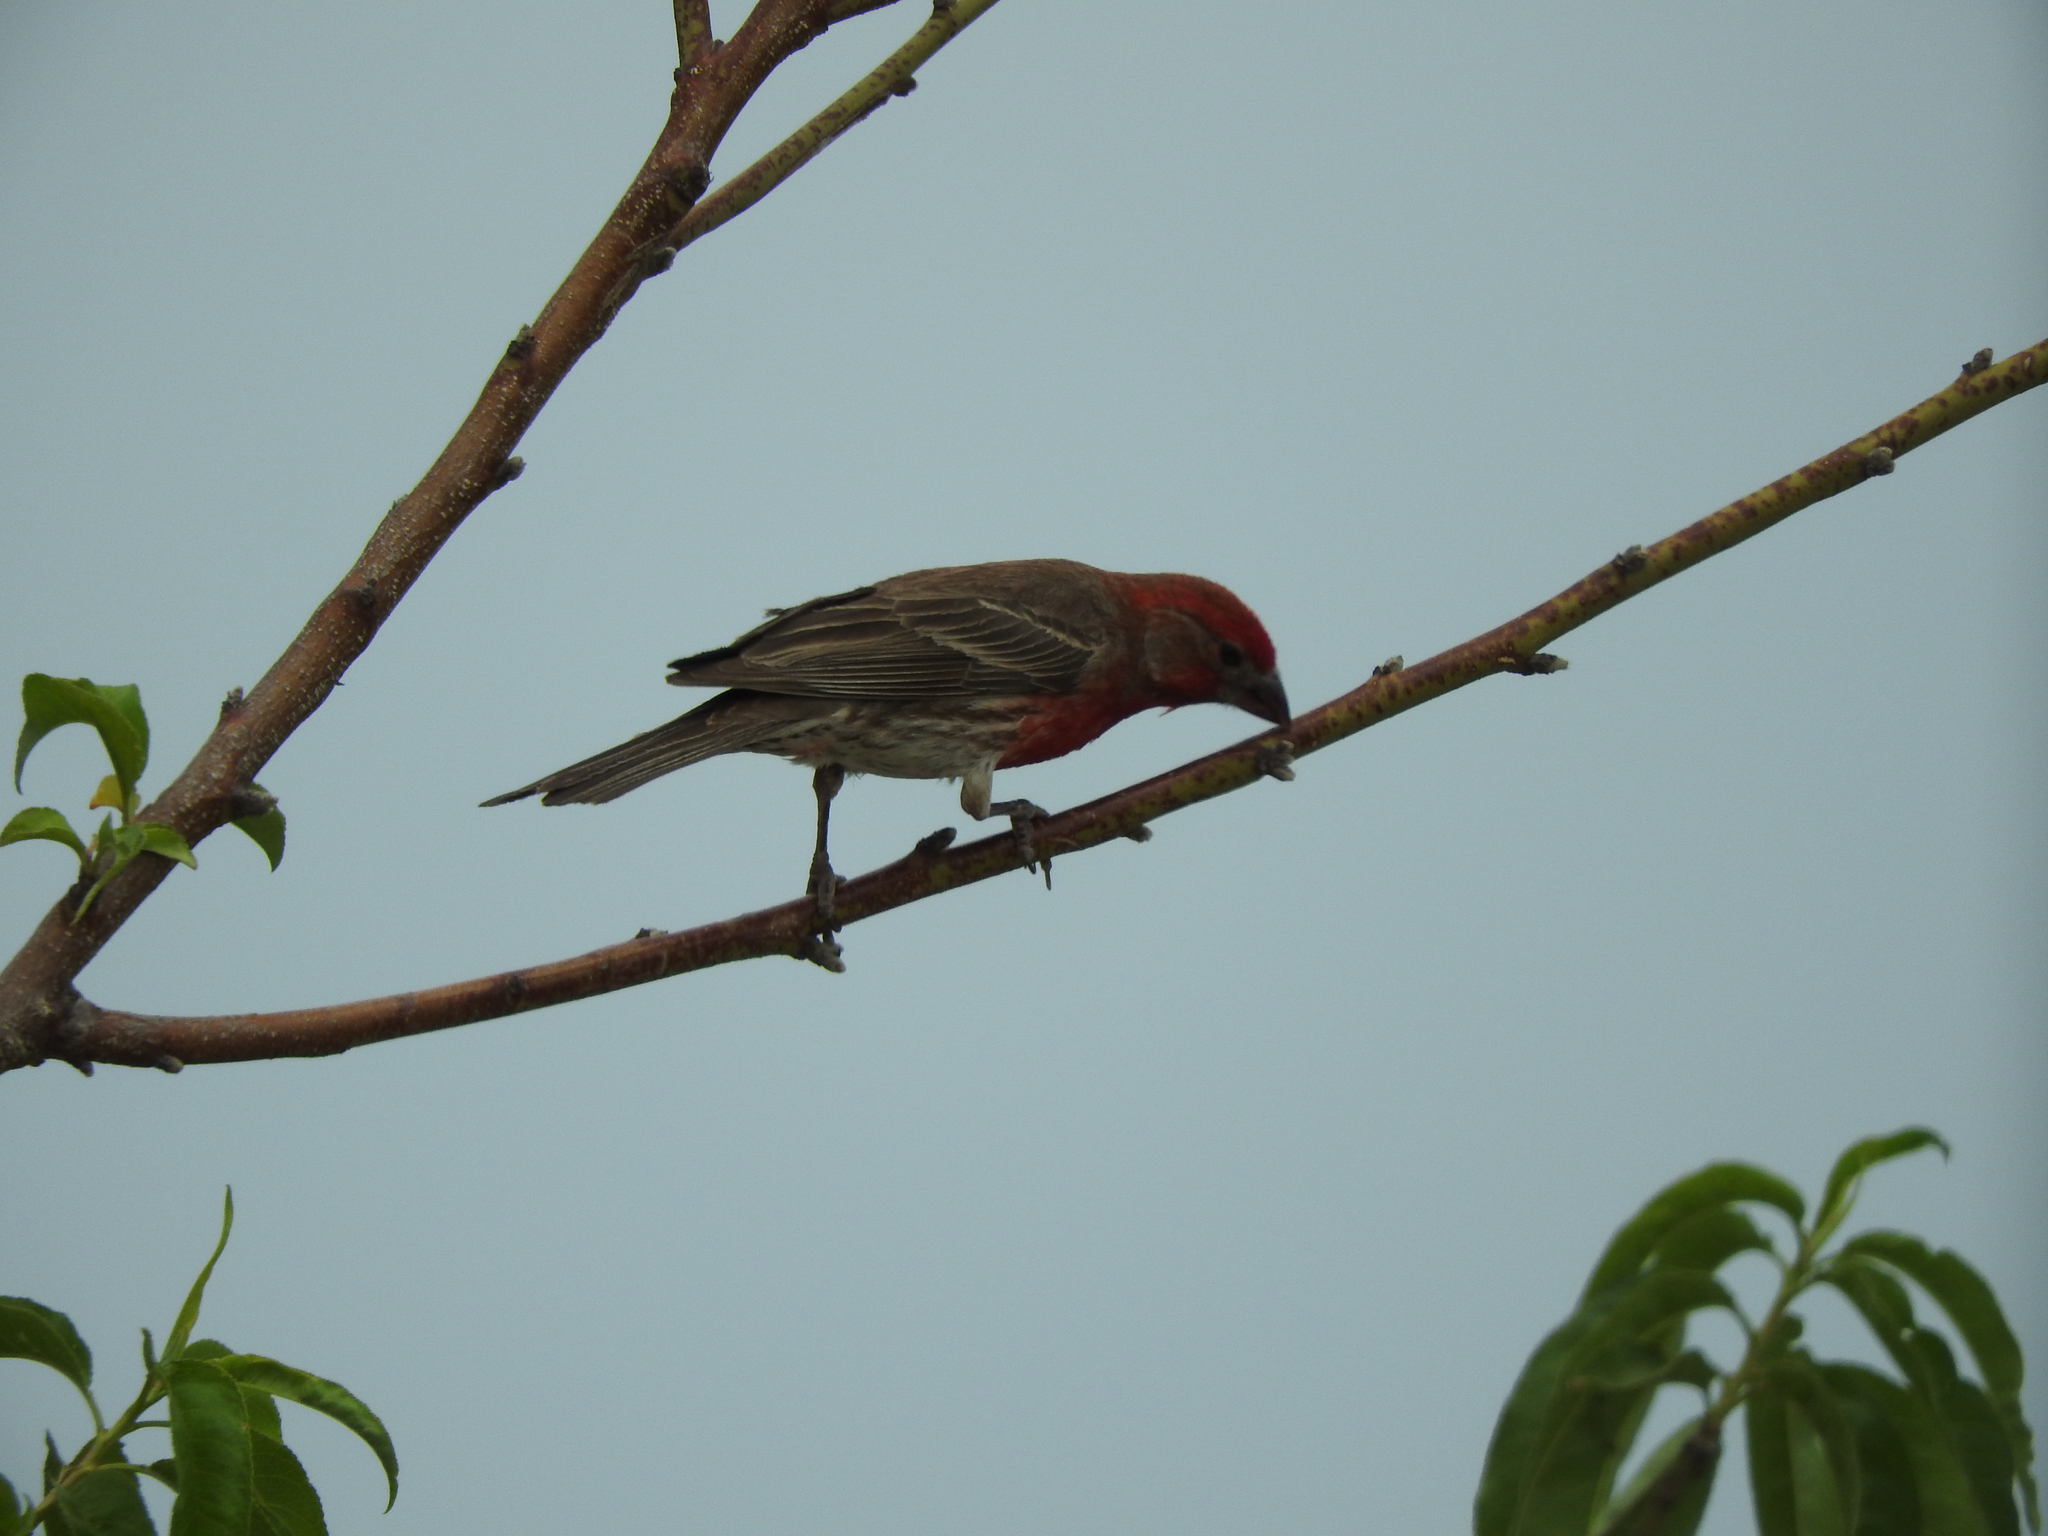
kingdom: Animalia
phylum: Chordata
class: Aves
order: Passeriformes
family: Fringillidae
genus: Haemorhous
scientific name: Haemorhous mexicanus
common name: House finch
